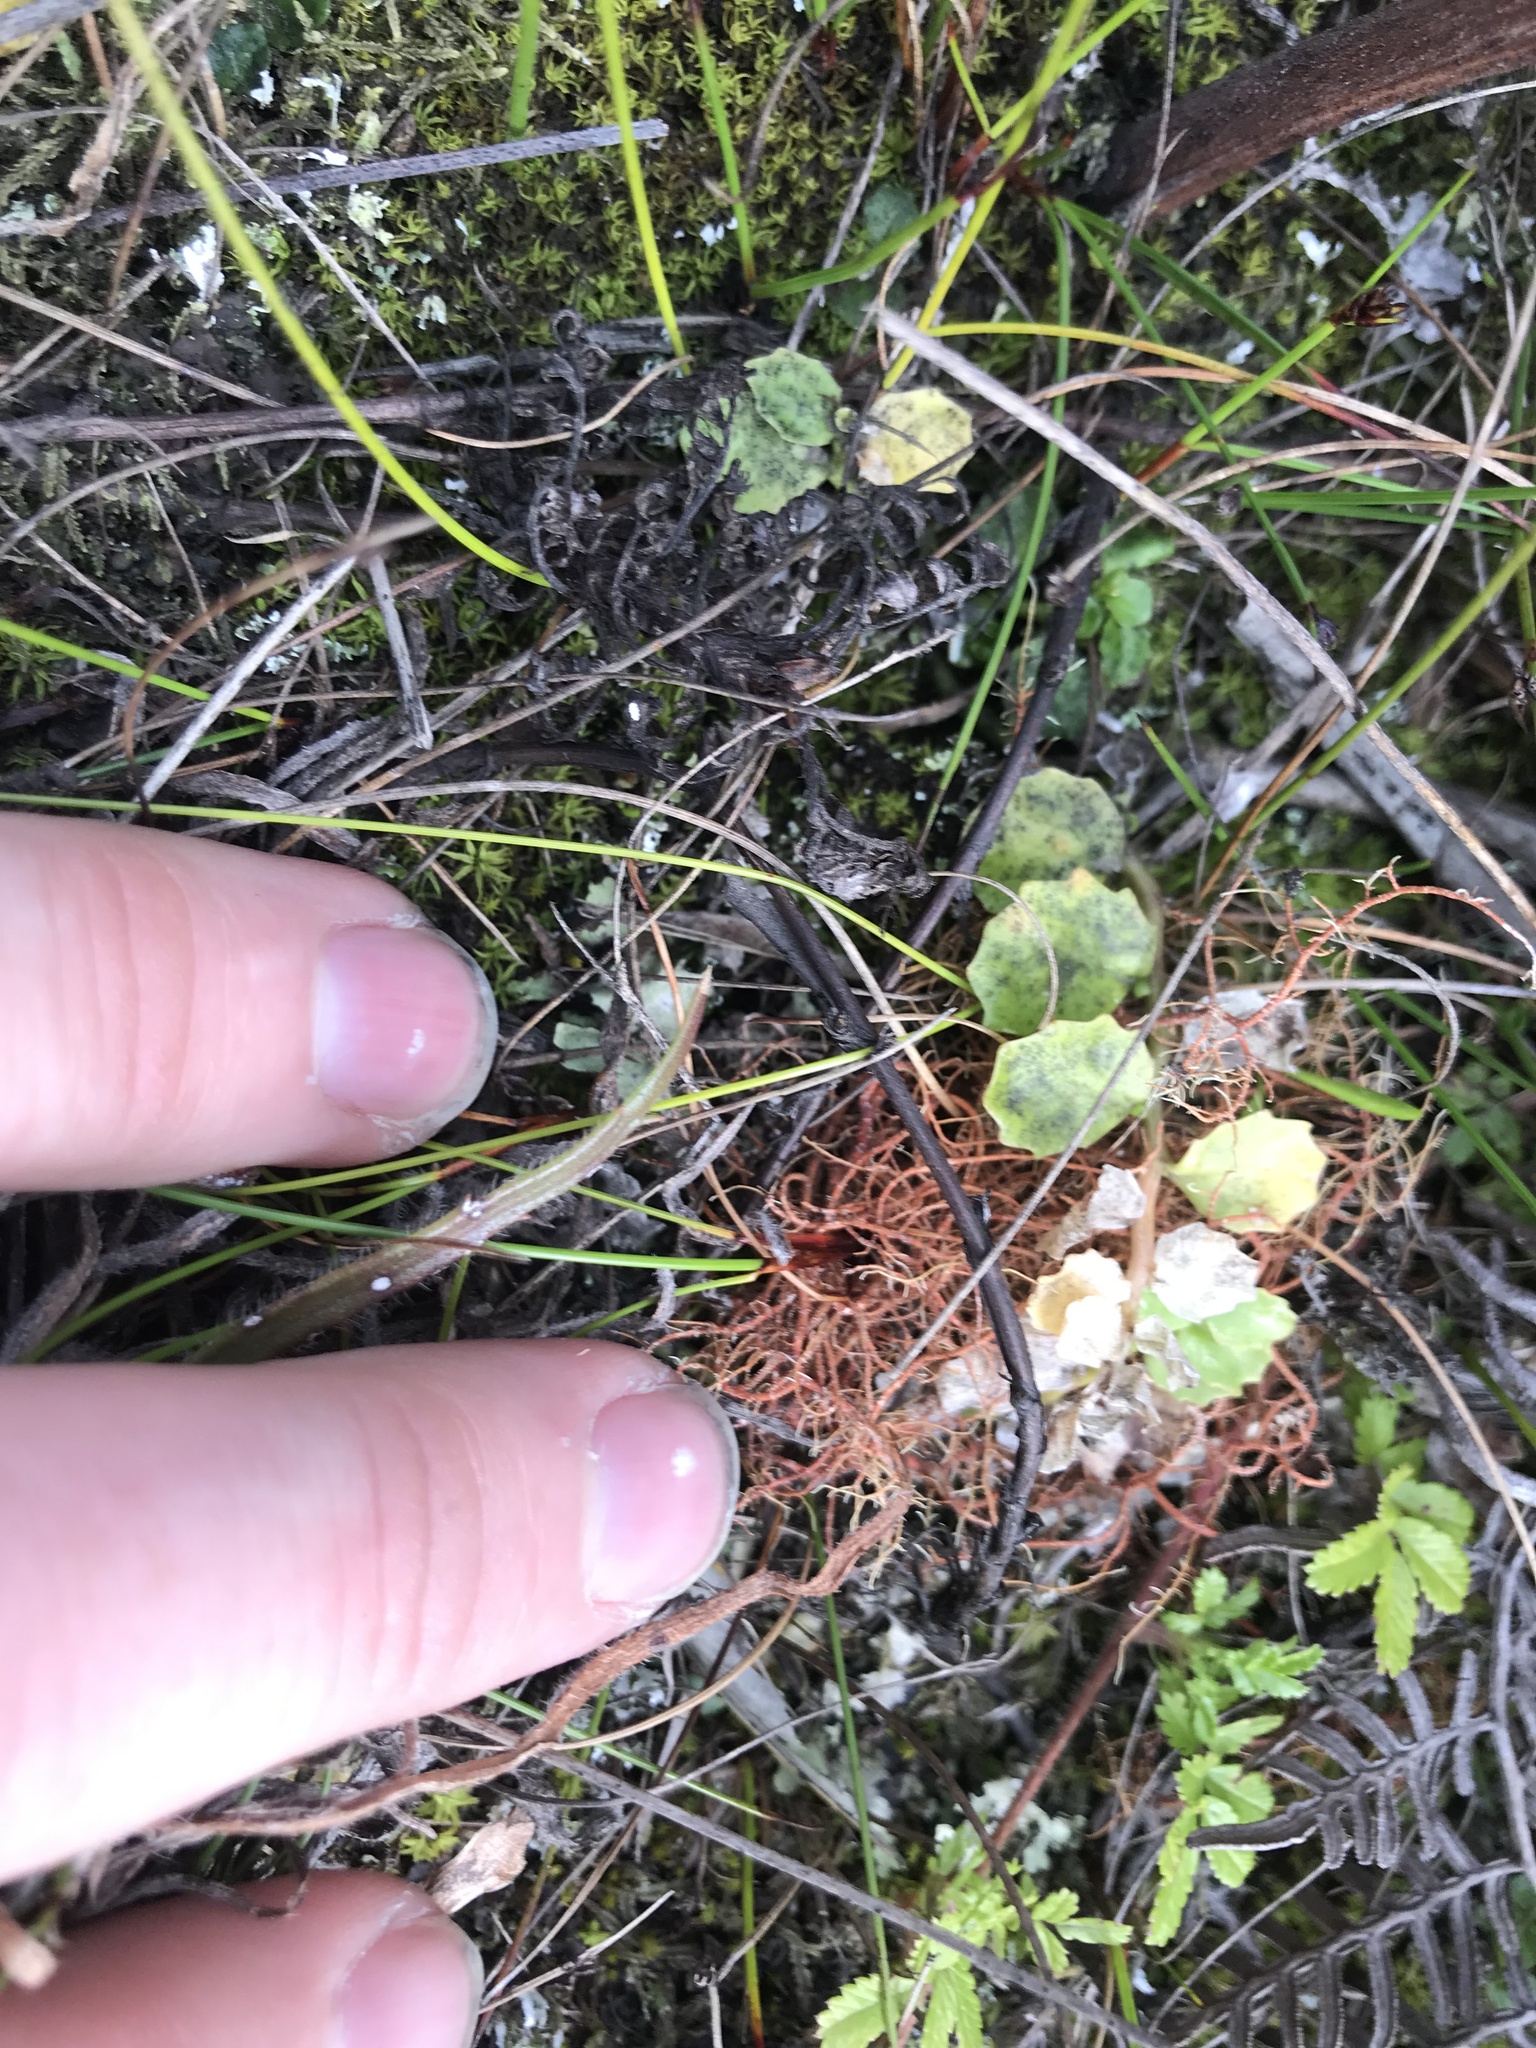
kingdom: Plantae
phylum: Tracheophyta
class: Magnoliopsida
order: Asterales
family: Campanulaceae
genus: Lobelia
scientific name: Lobelia arenaria
